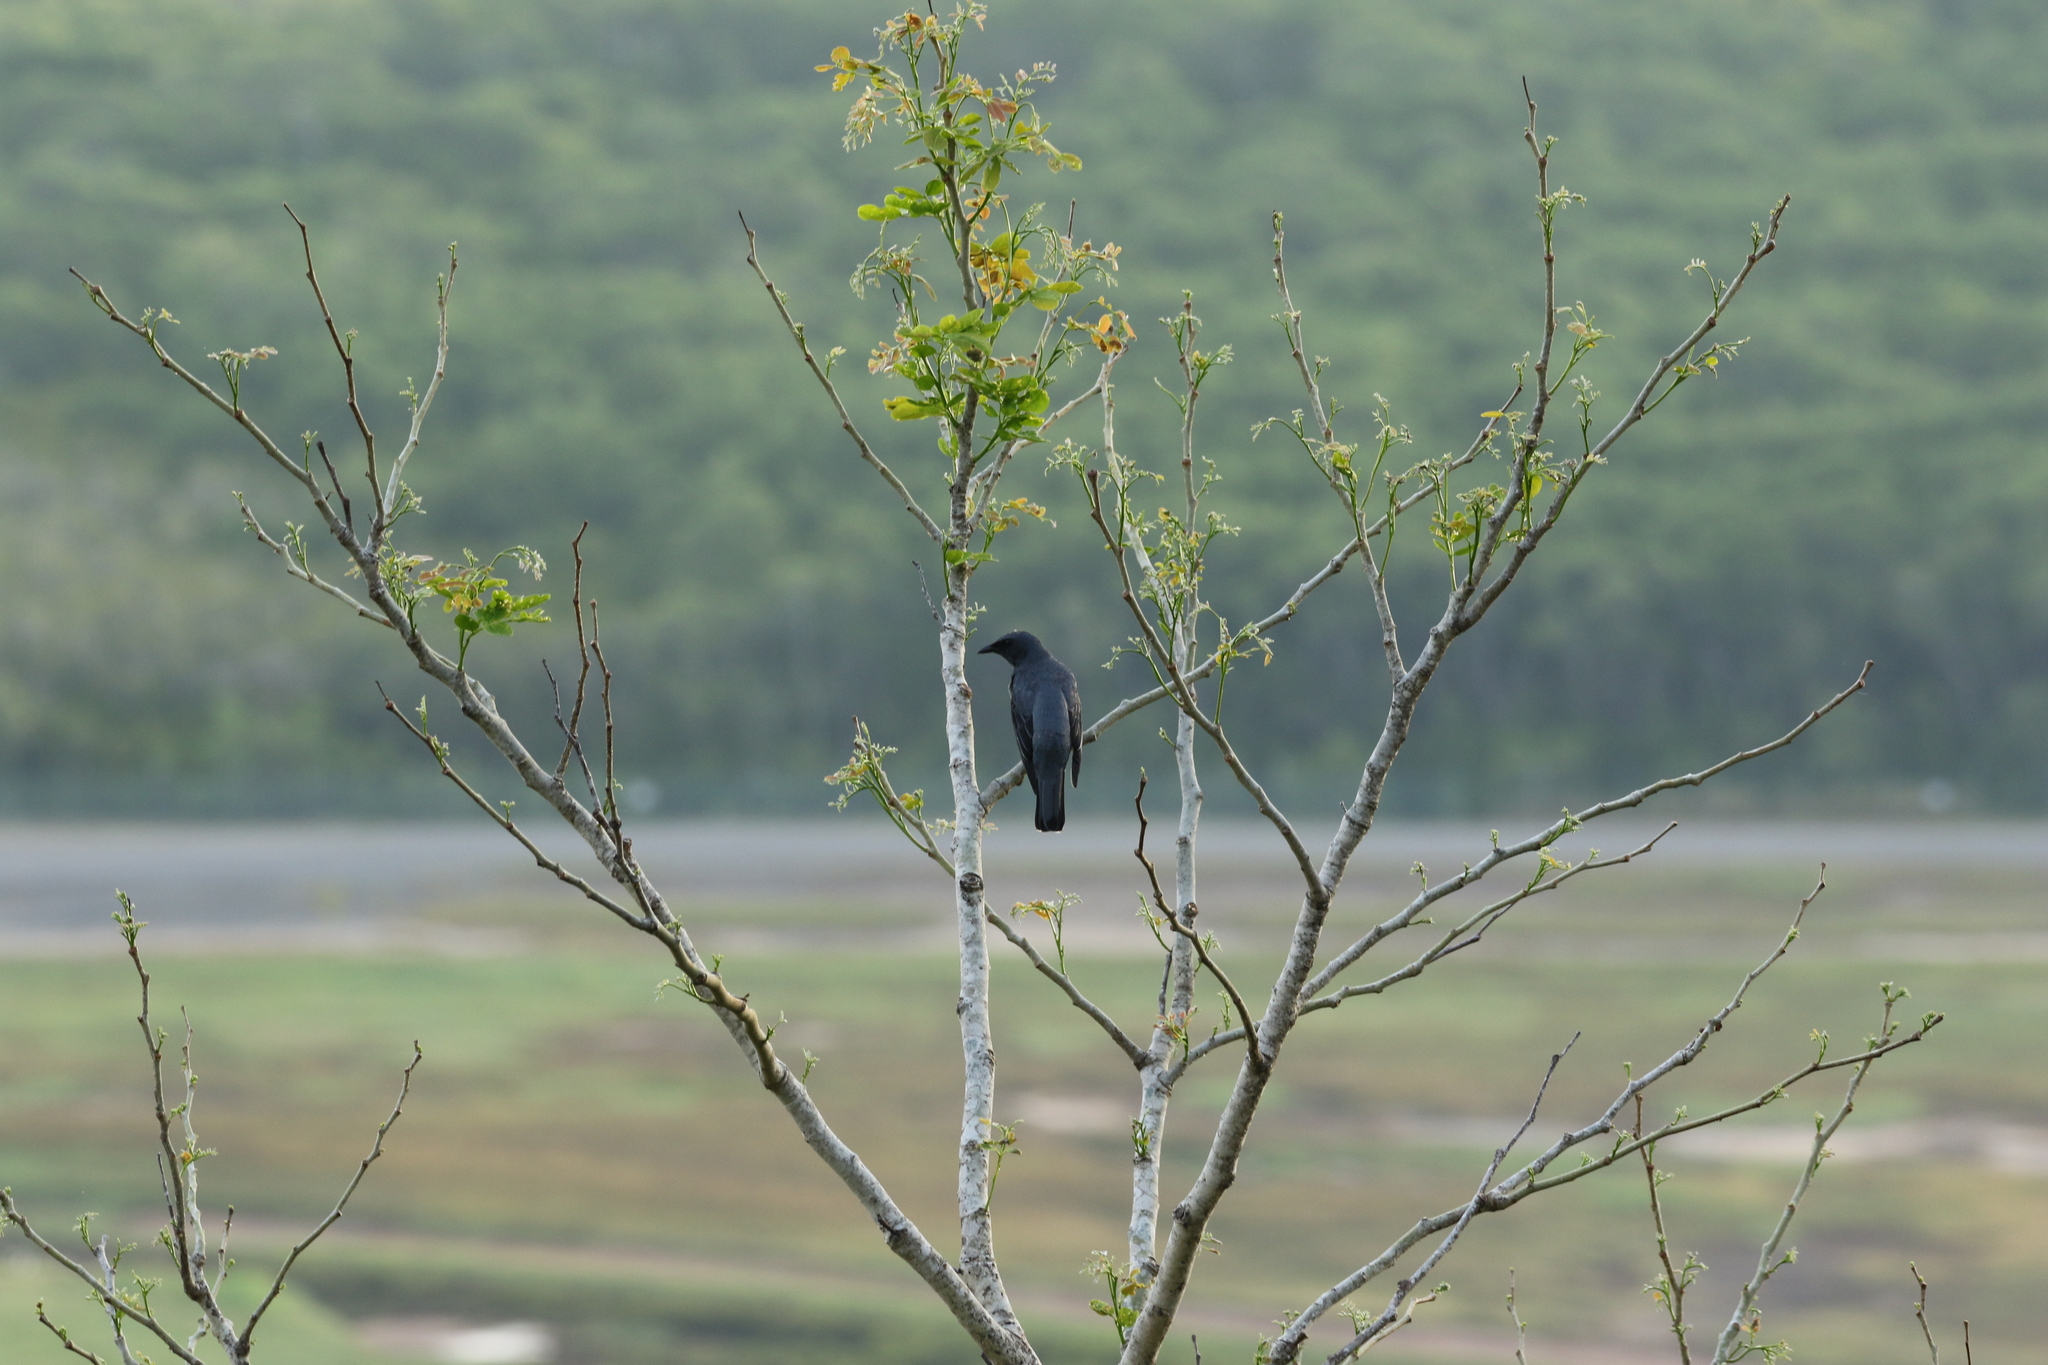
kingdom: Animalia
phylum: Chordata
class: Aves
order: Passeriformes
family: Campephagidae
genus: Edolisoma
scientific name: Edolisoma tenuirostre
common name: Common cicadabird
